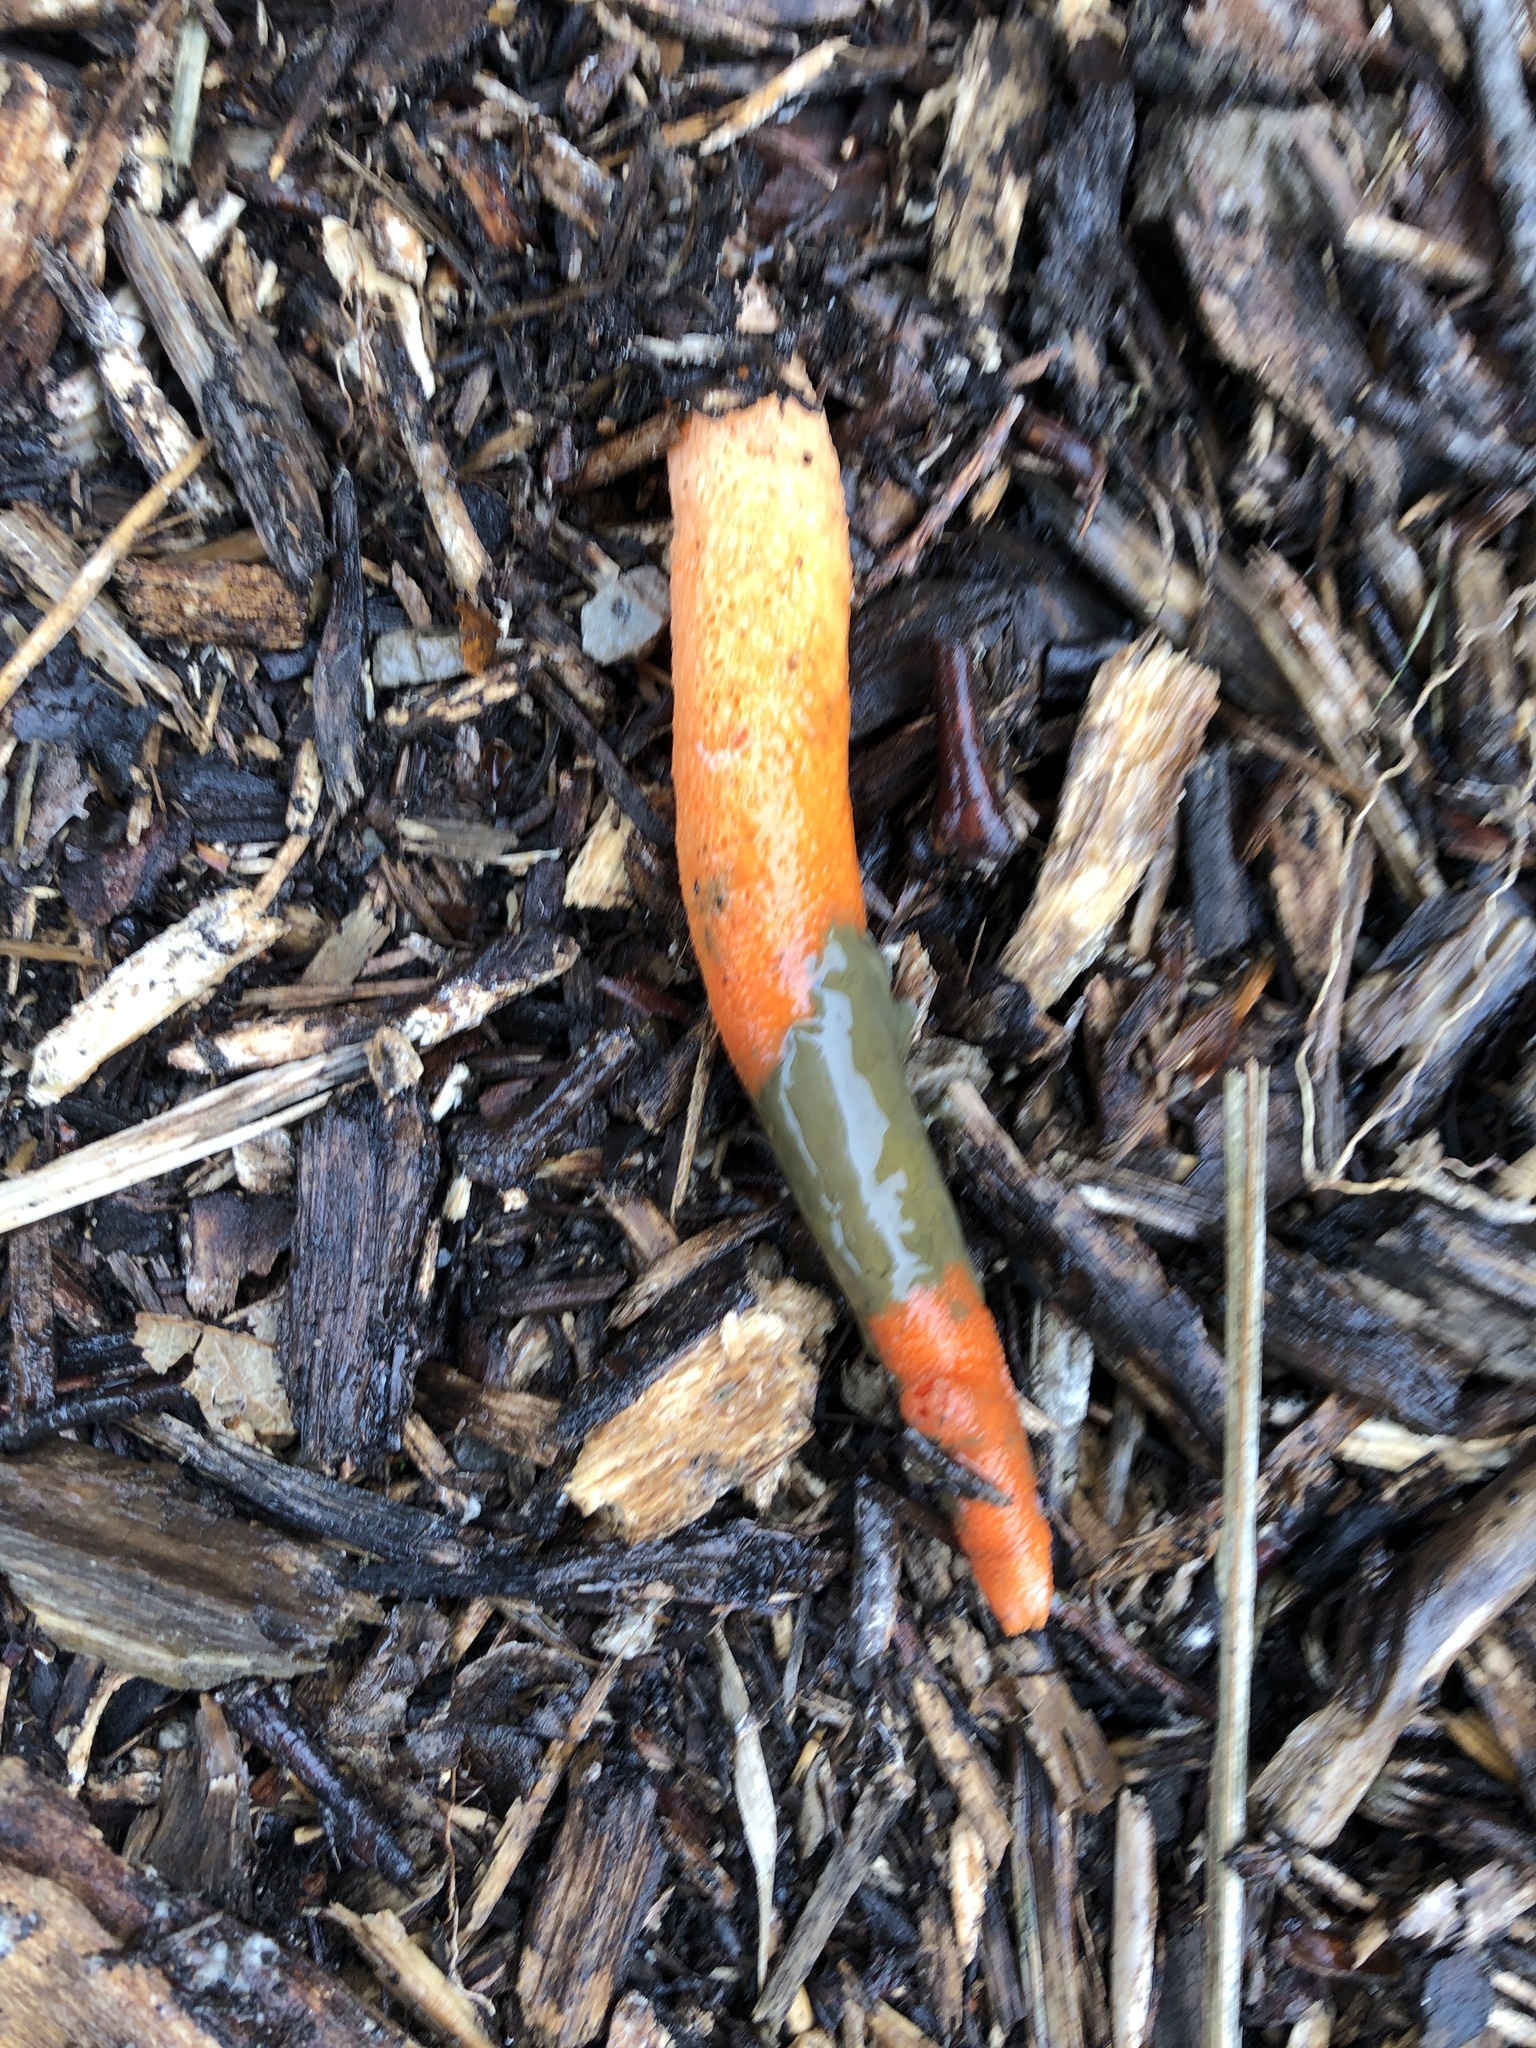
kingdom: Fungi
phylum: Basidiomycota
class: Agaricomycetes
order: Phallales
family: Phallaceae
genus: Mutinus
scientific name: Mutinus elegans
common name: Devil's dipstick
